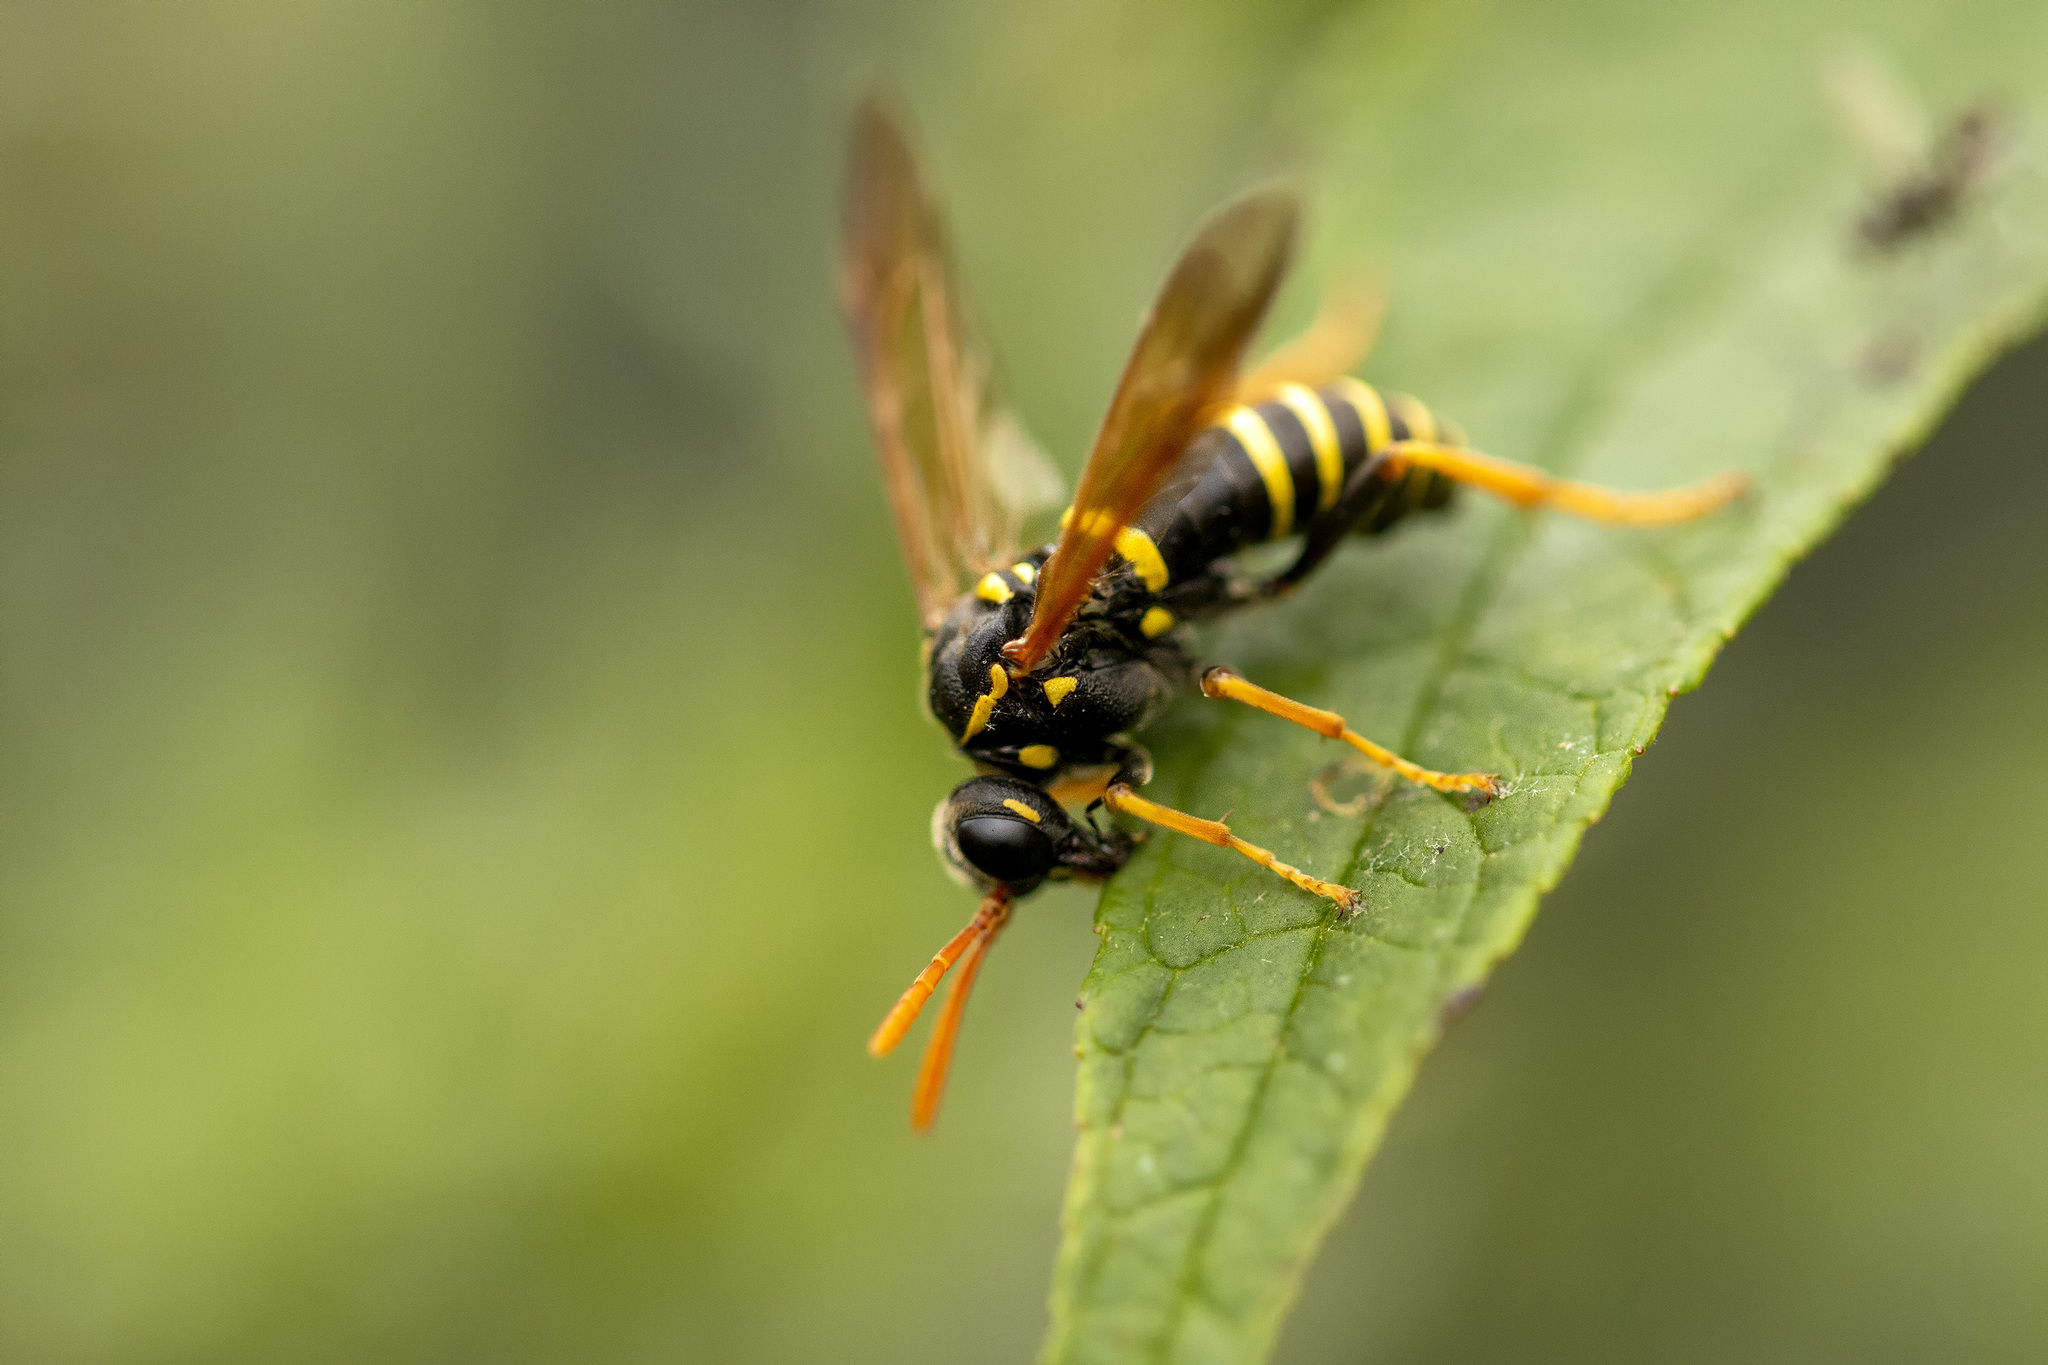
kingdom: Animalia
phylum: Arthropoda
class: Insecta
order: Hymenoptera
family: Tenthredinidae
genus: Tenthredo
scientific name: Tenthredo scrophulariae
